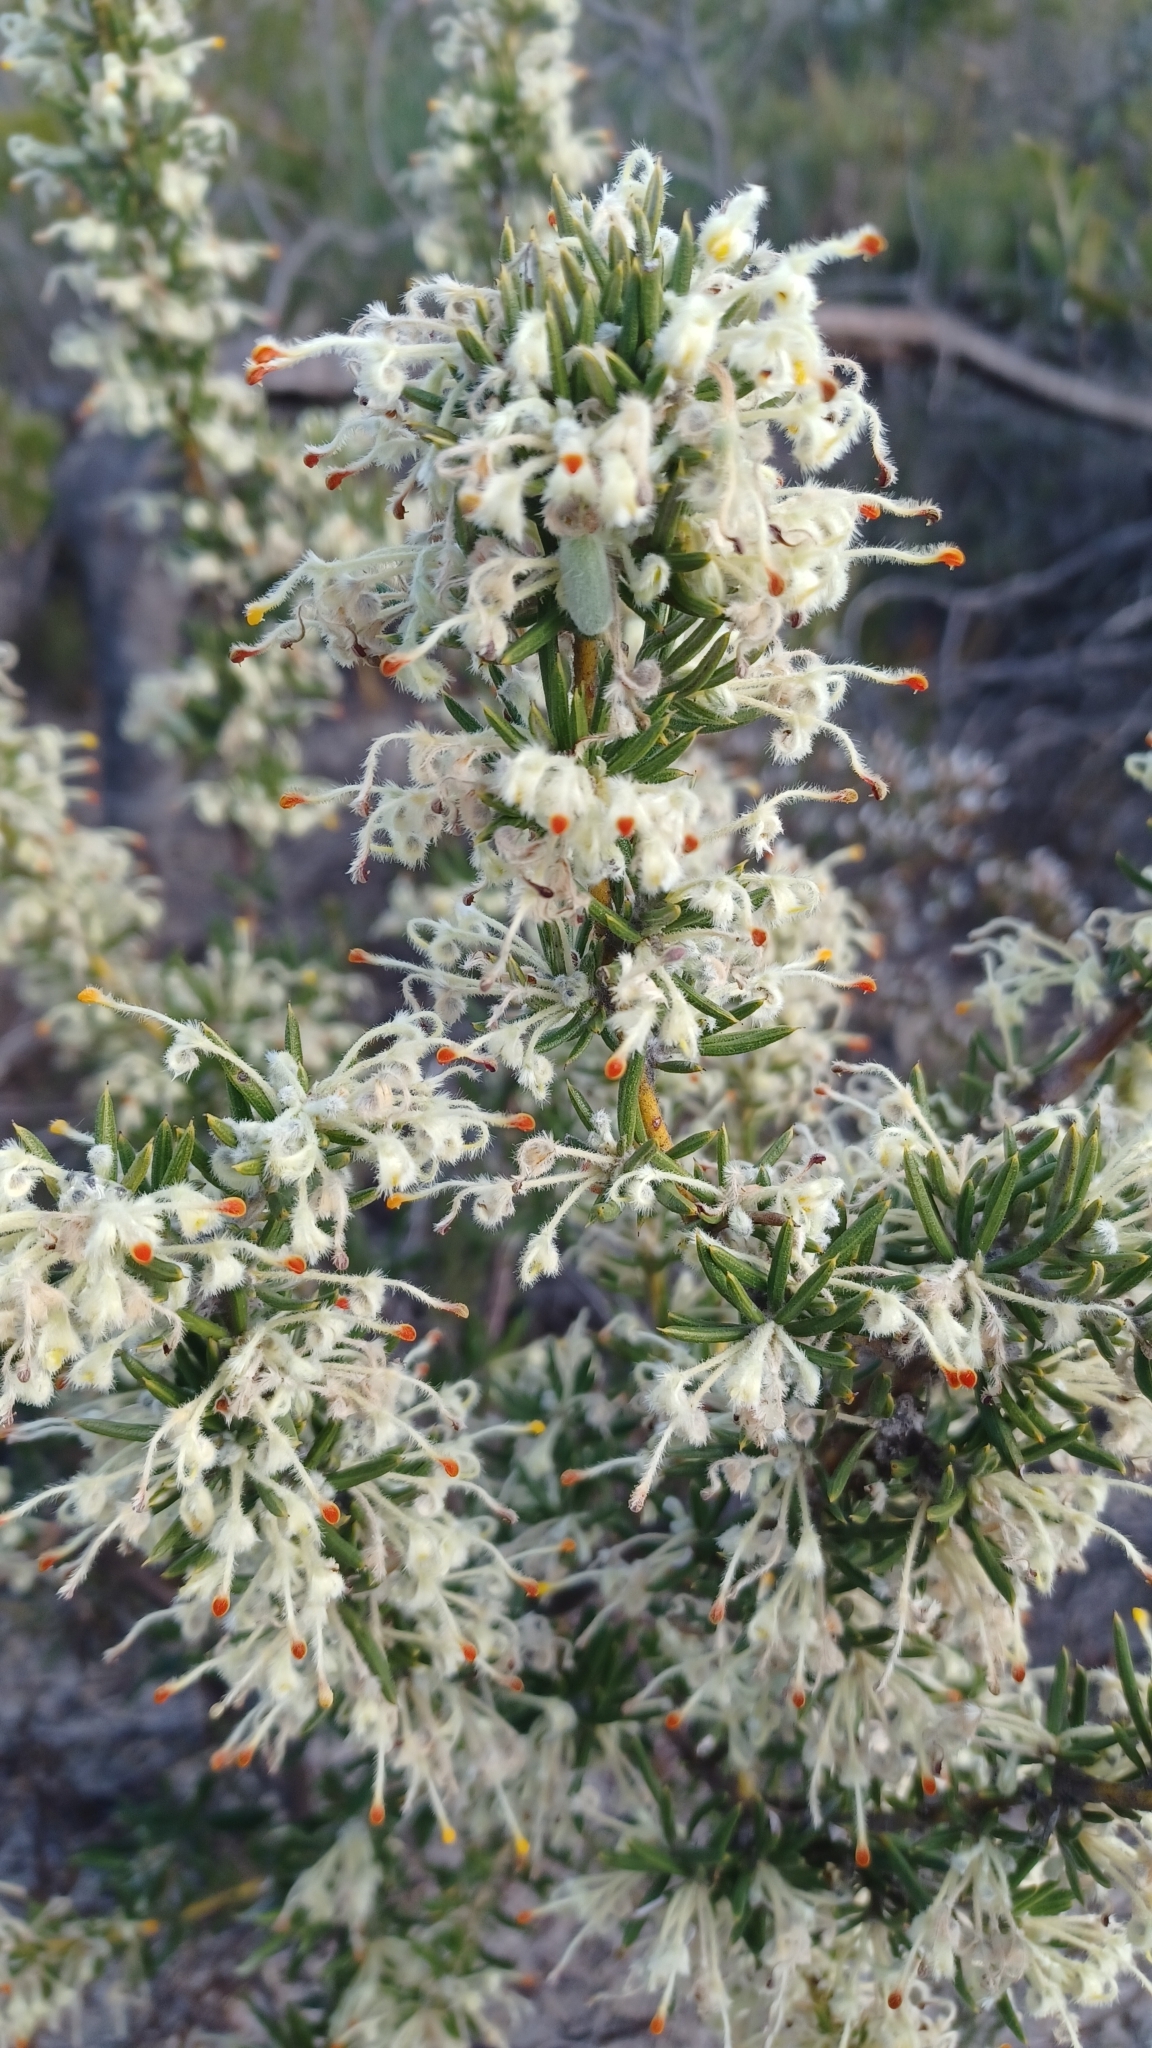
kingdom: Plantae
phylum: Tracheophyta
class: Magnoliopsida
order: Proteales
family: Proteaceae
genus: Grevillea
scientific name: Grevillea pilulifera
